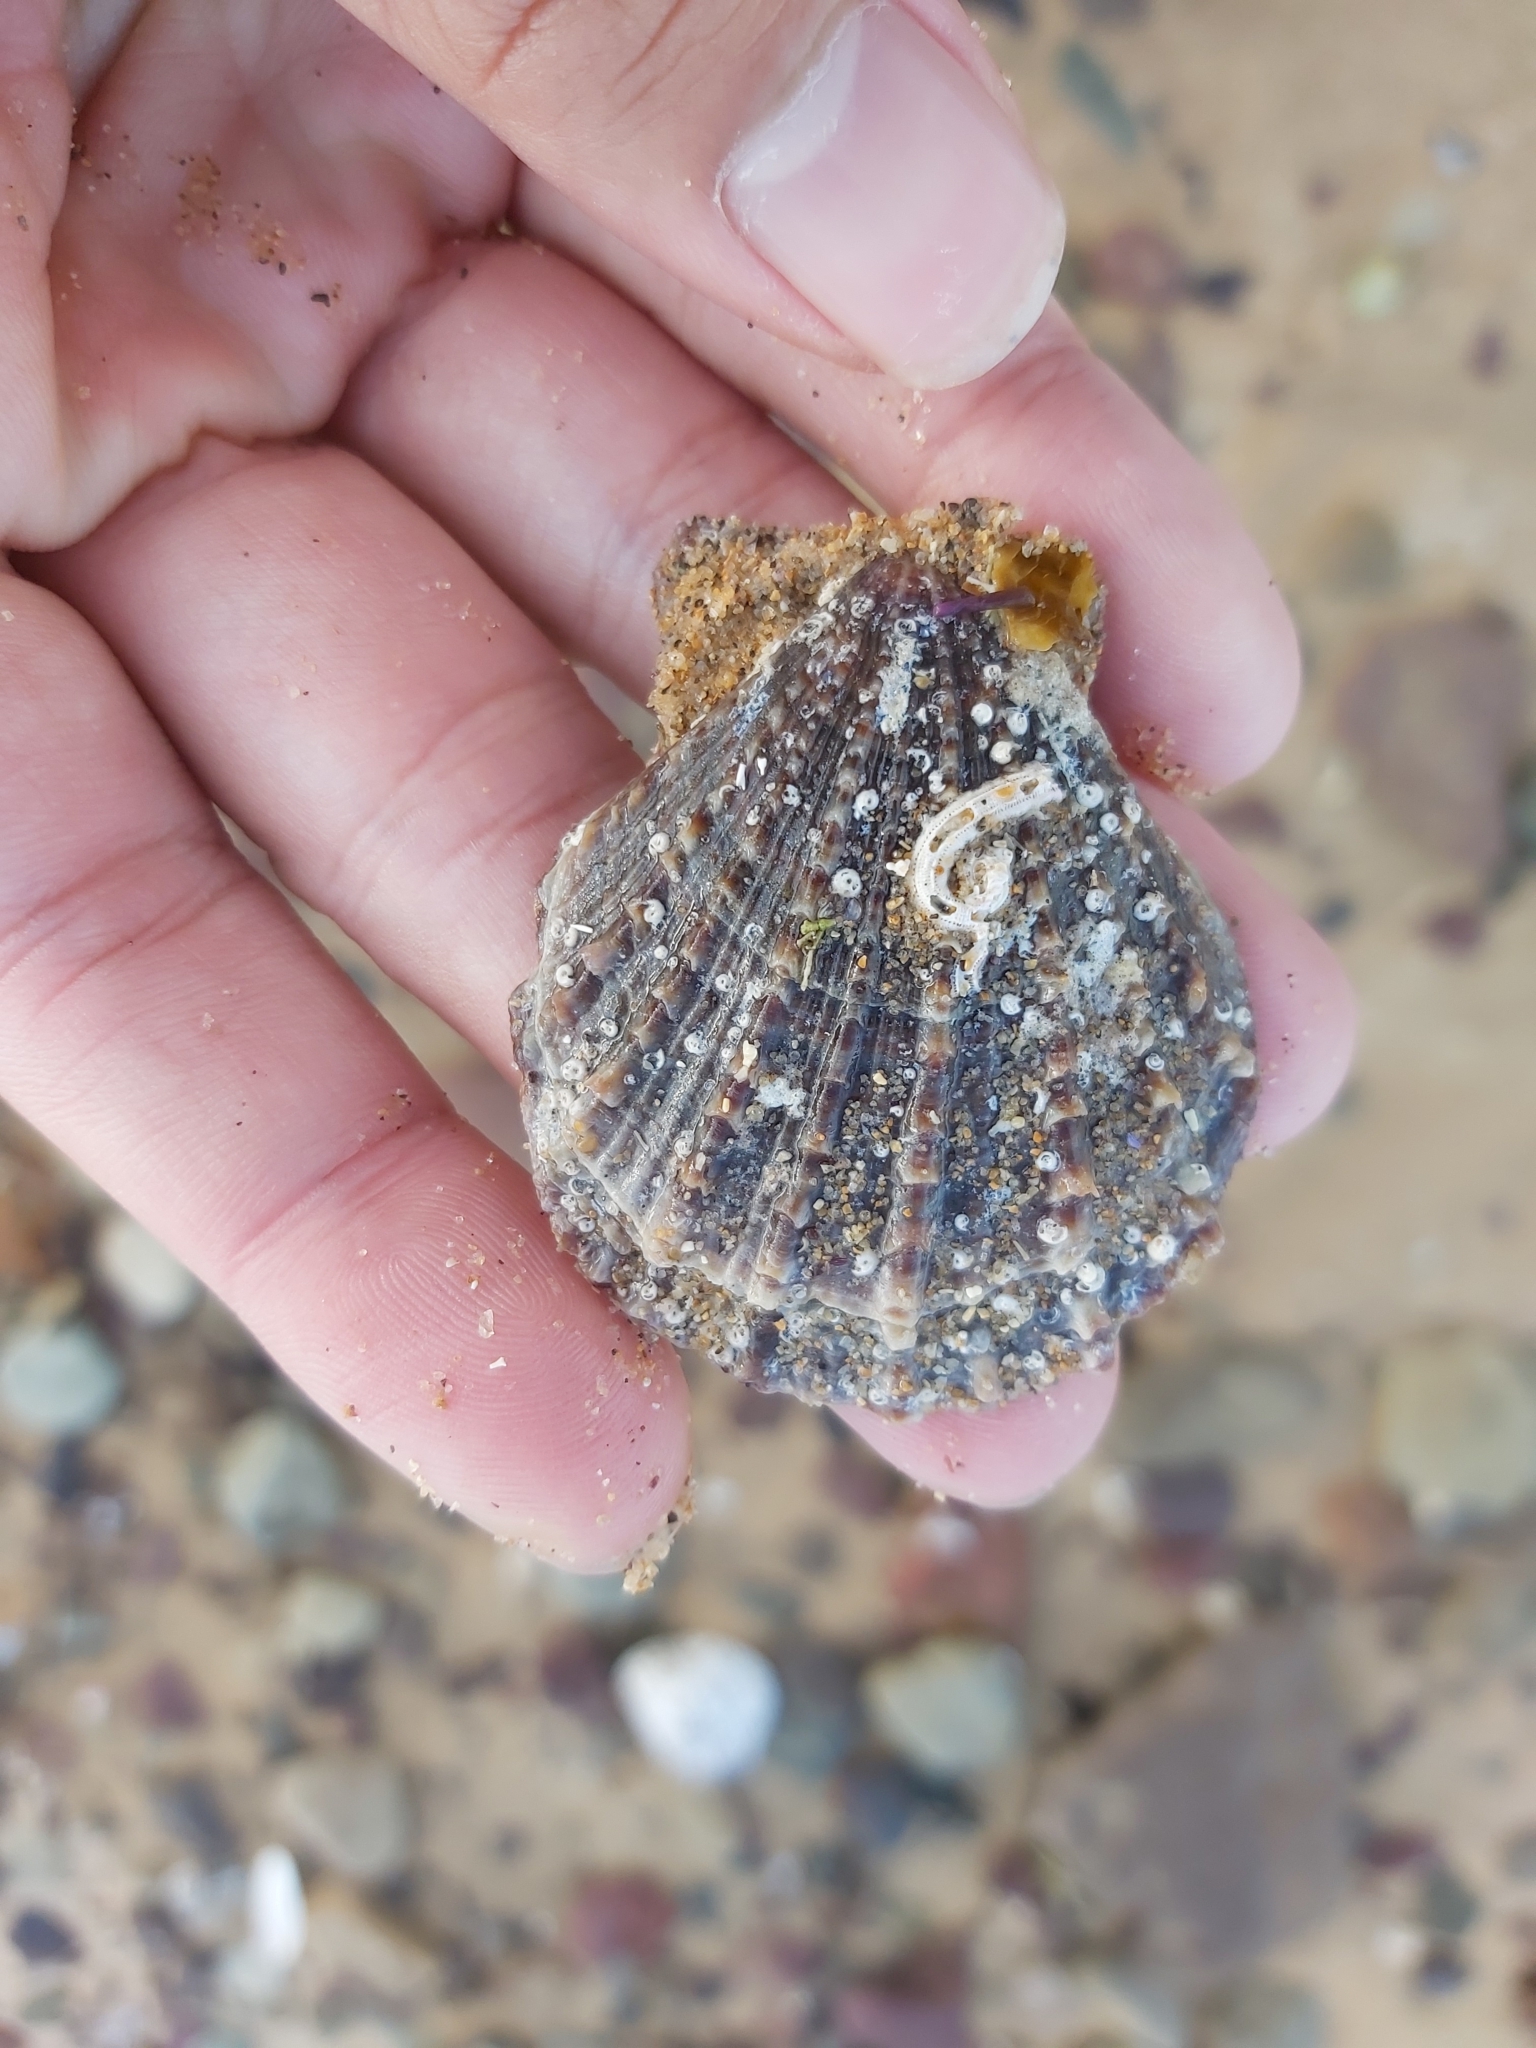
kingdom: Animalia
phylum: Mollusca
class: Bivalvia
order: Pectinida
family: Pectinidae
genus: Scaeochlamys
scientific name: Scaeochlamys livida
